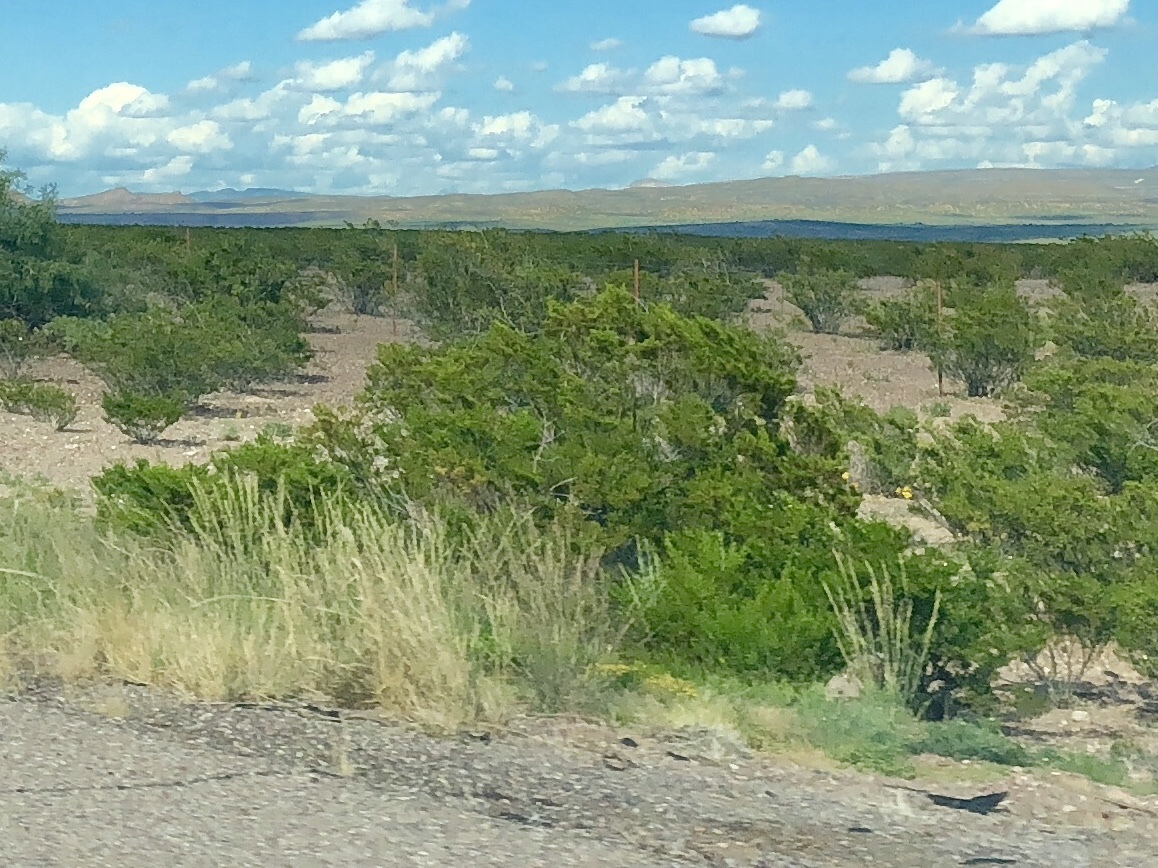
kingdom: Plantae
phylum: Tracheophyta
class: Magnoliopsida
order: Zygophyllales
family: Zygophyllaceae
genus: Larrea
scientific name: Larrea tridentata
